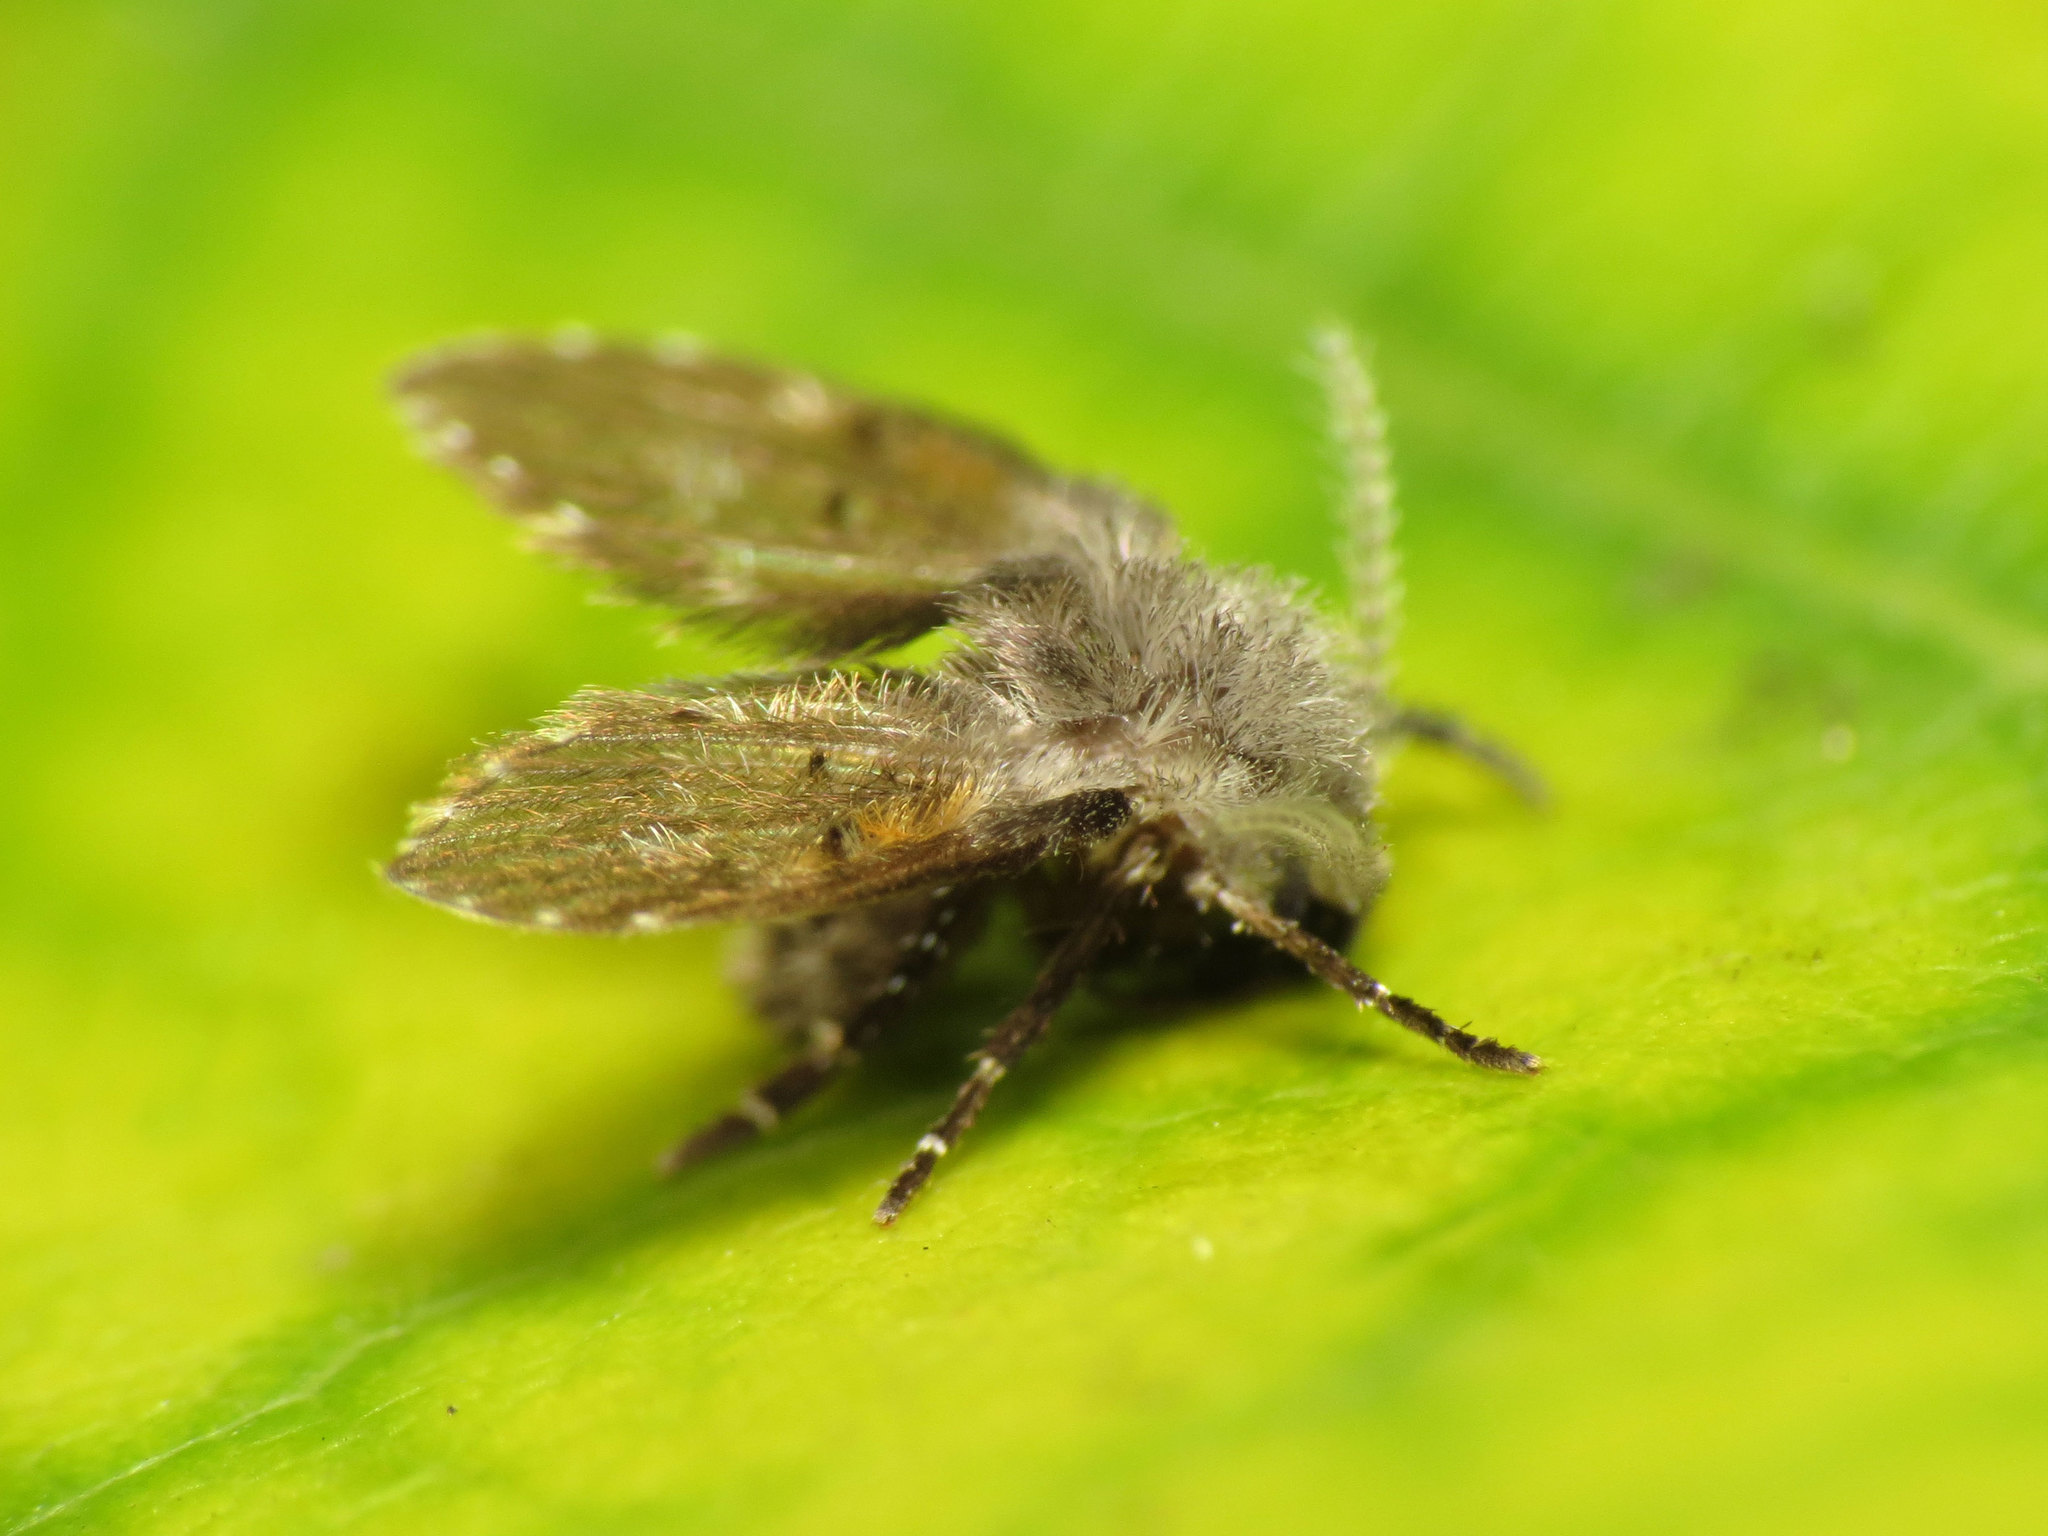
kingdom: Animalia
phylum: Arthropoda
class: Insecta
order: Diptera
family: Psychodidae
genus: Clogmia
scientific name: Clogmia albipunctatus
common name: White-spotted moth fly
